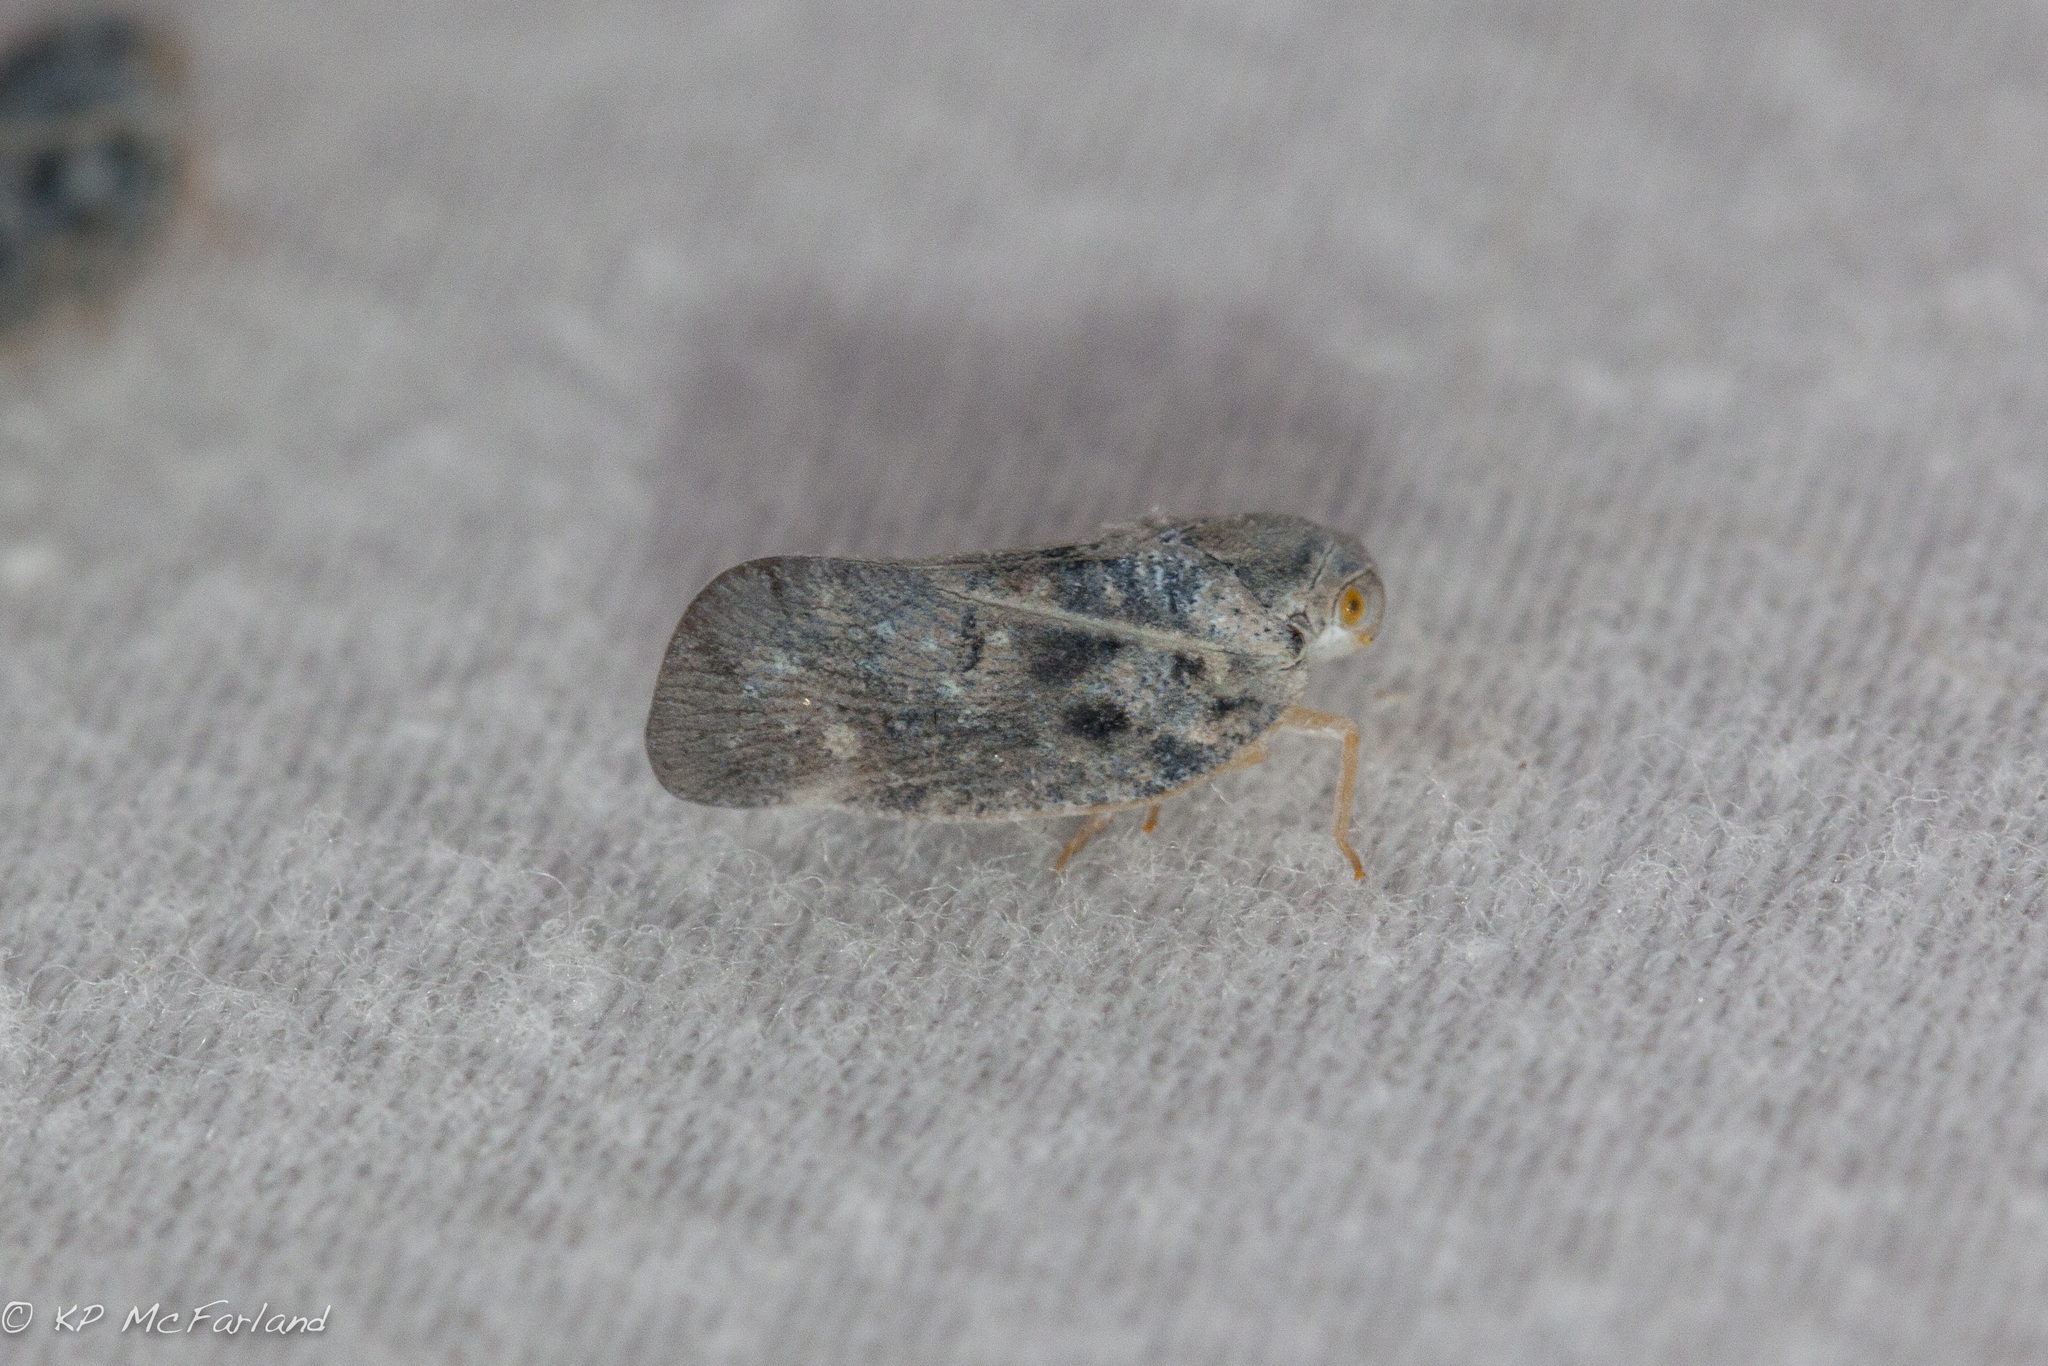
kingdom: Animalia
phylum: Arthropoda
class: Insecta
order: Hemiptera
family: Flatidae
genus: Metcalfa
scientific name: Metcalfa pruinosa
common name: Citrus flatid planthopper
